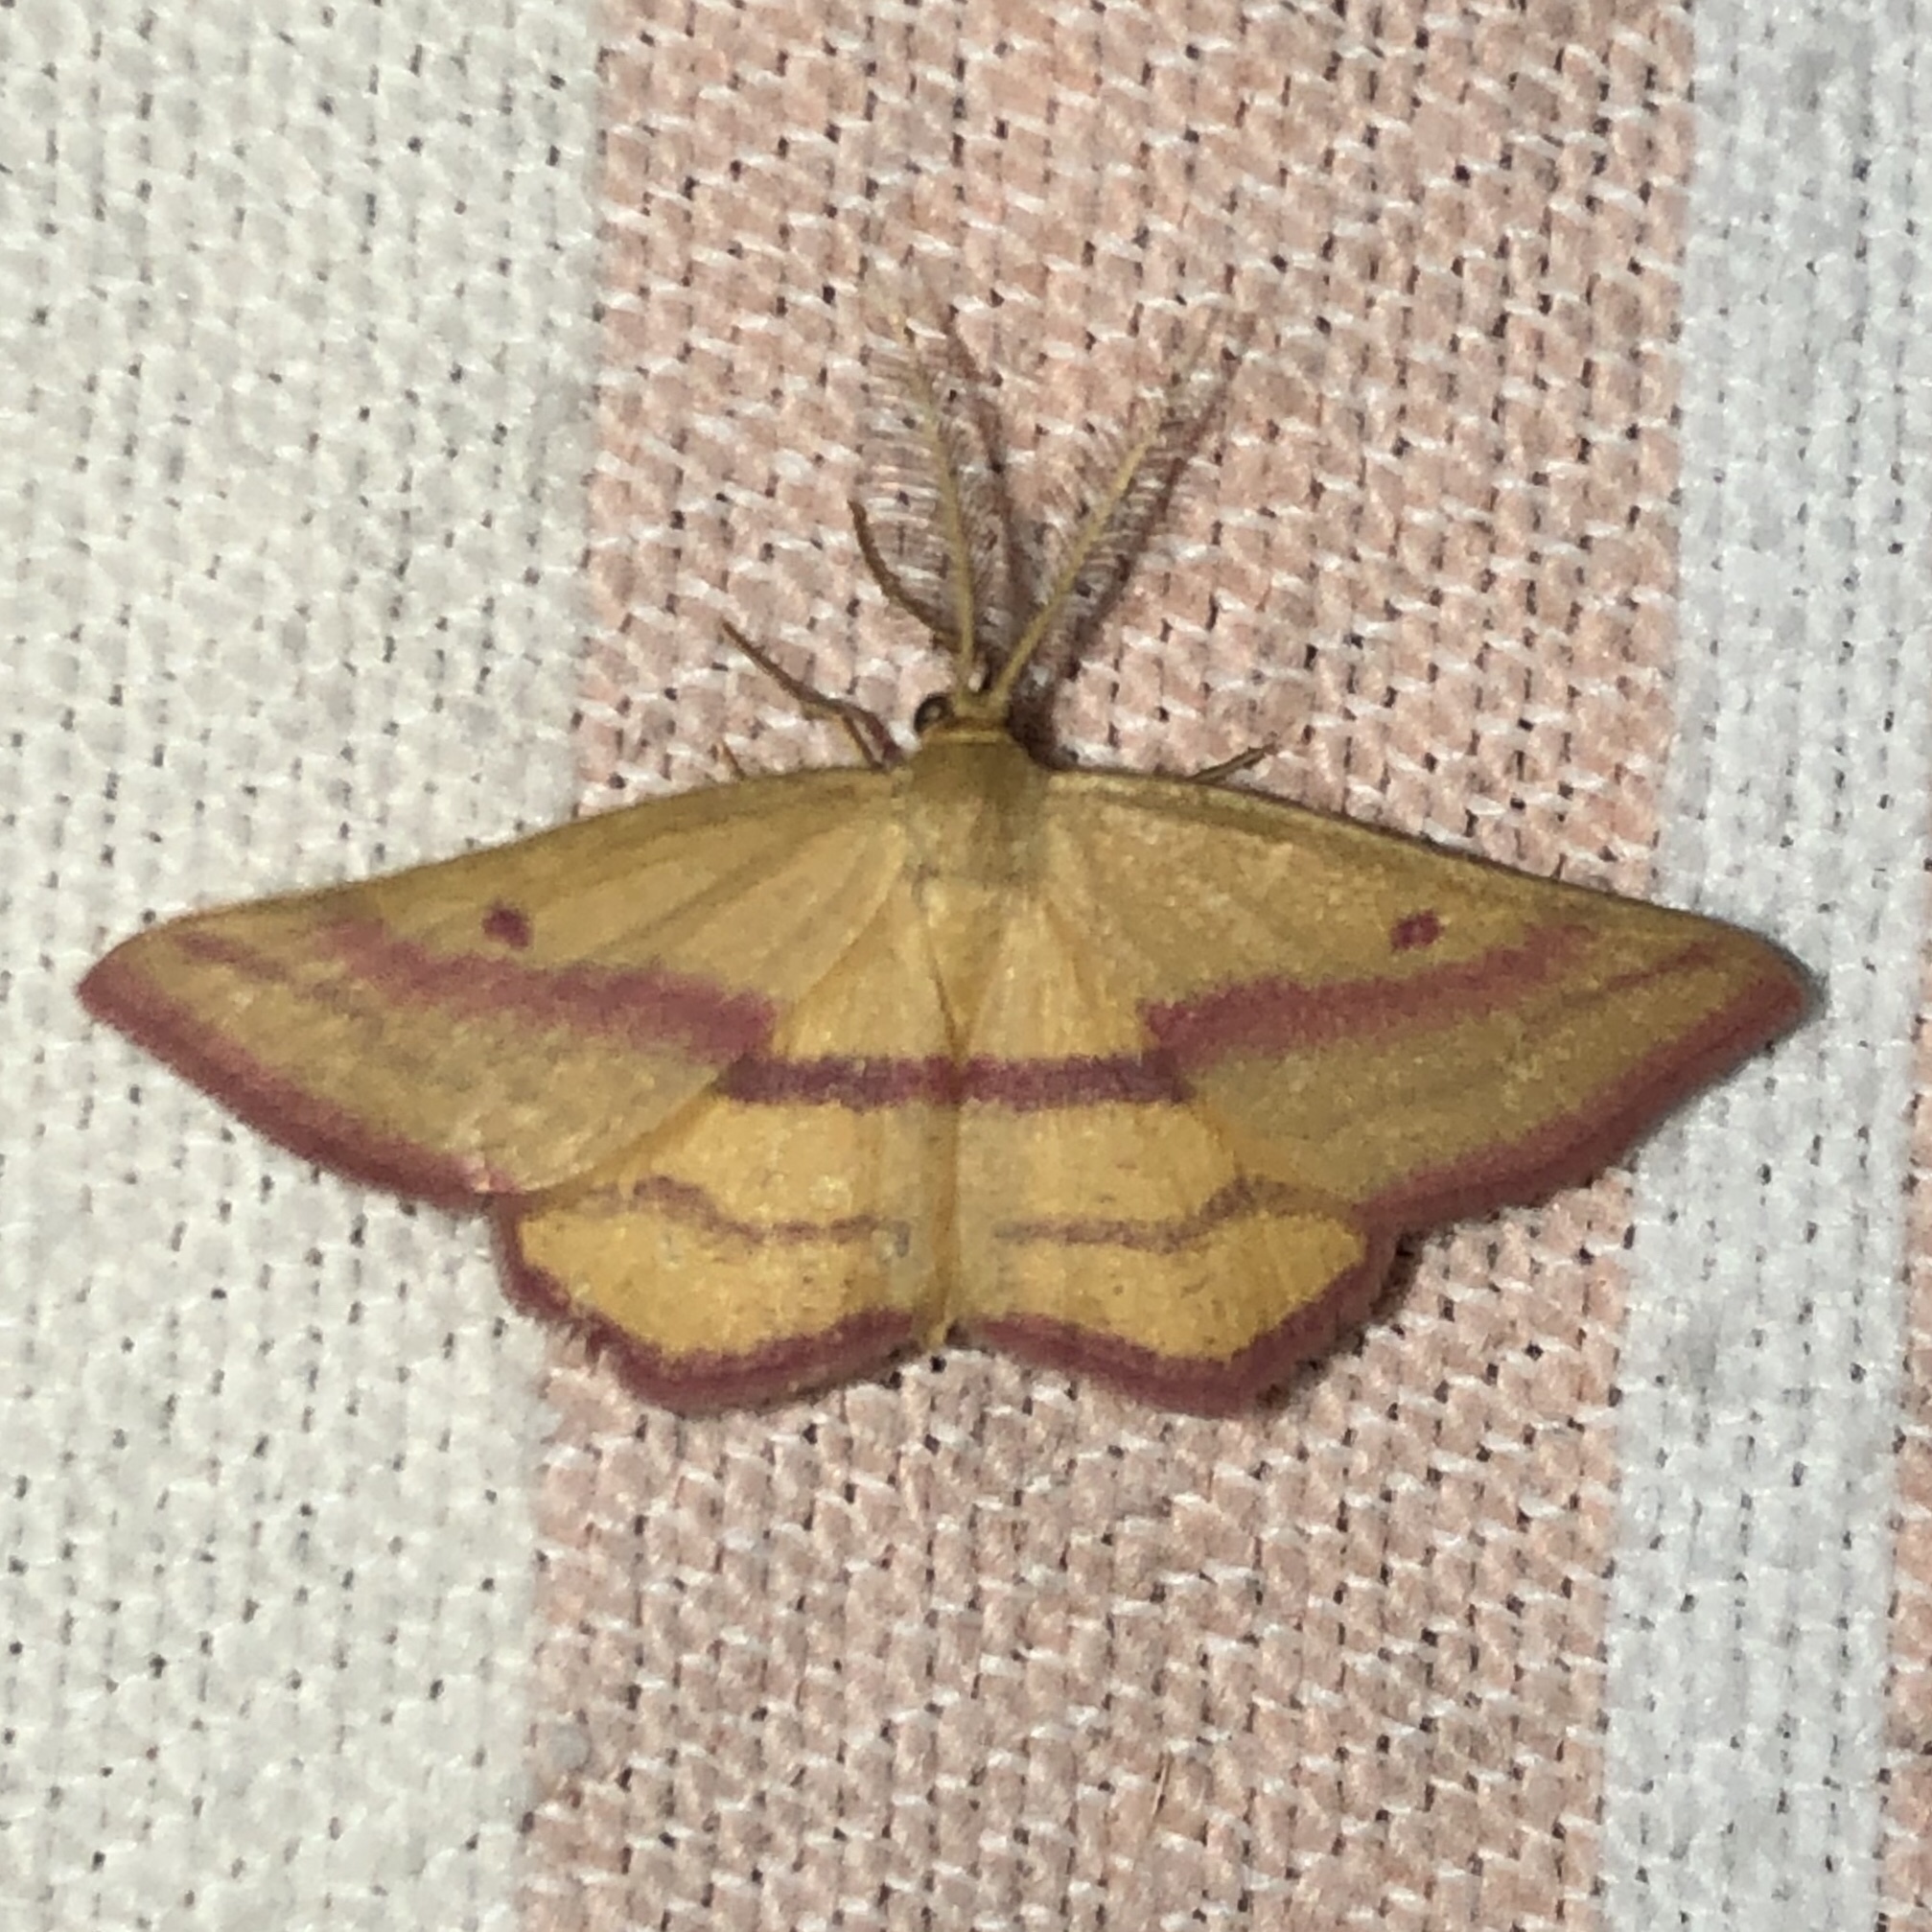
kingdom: Animalia
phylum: Arthropoda
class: Insecta
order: Lepidoptera
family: Geometridae
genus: Haematopis
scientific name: Haematopis grataria
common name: Chickweed geometer
